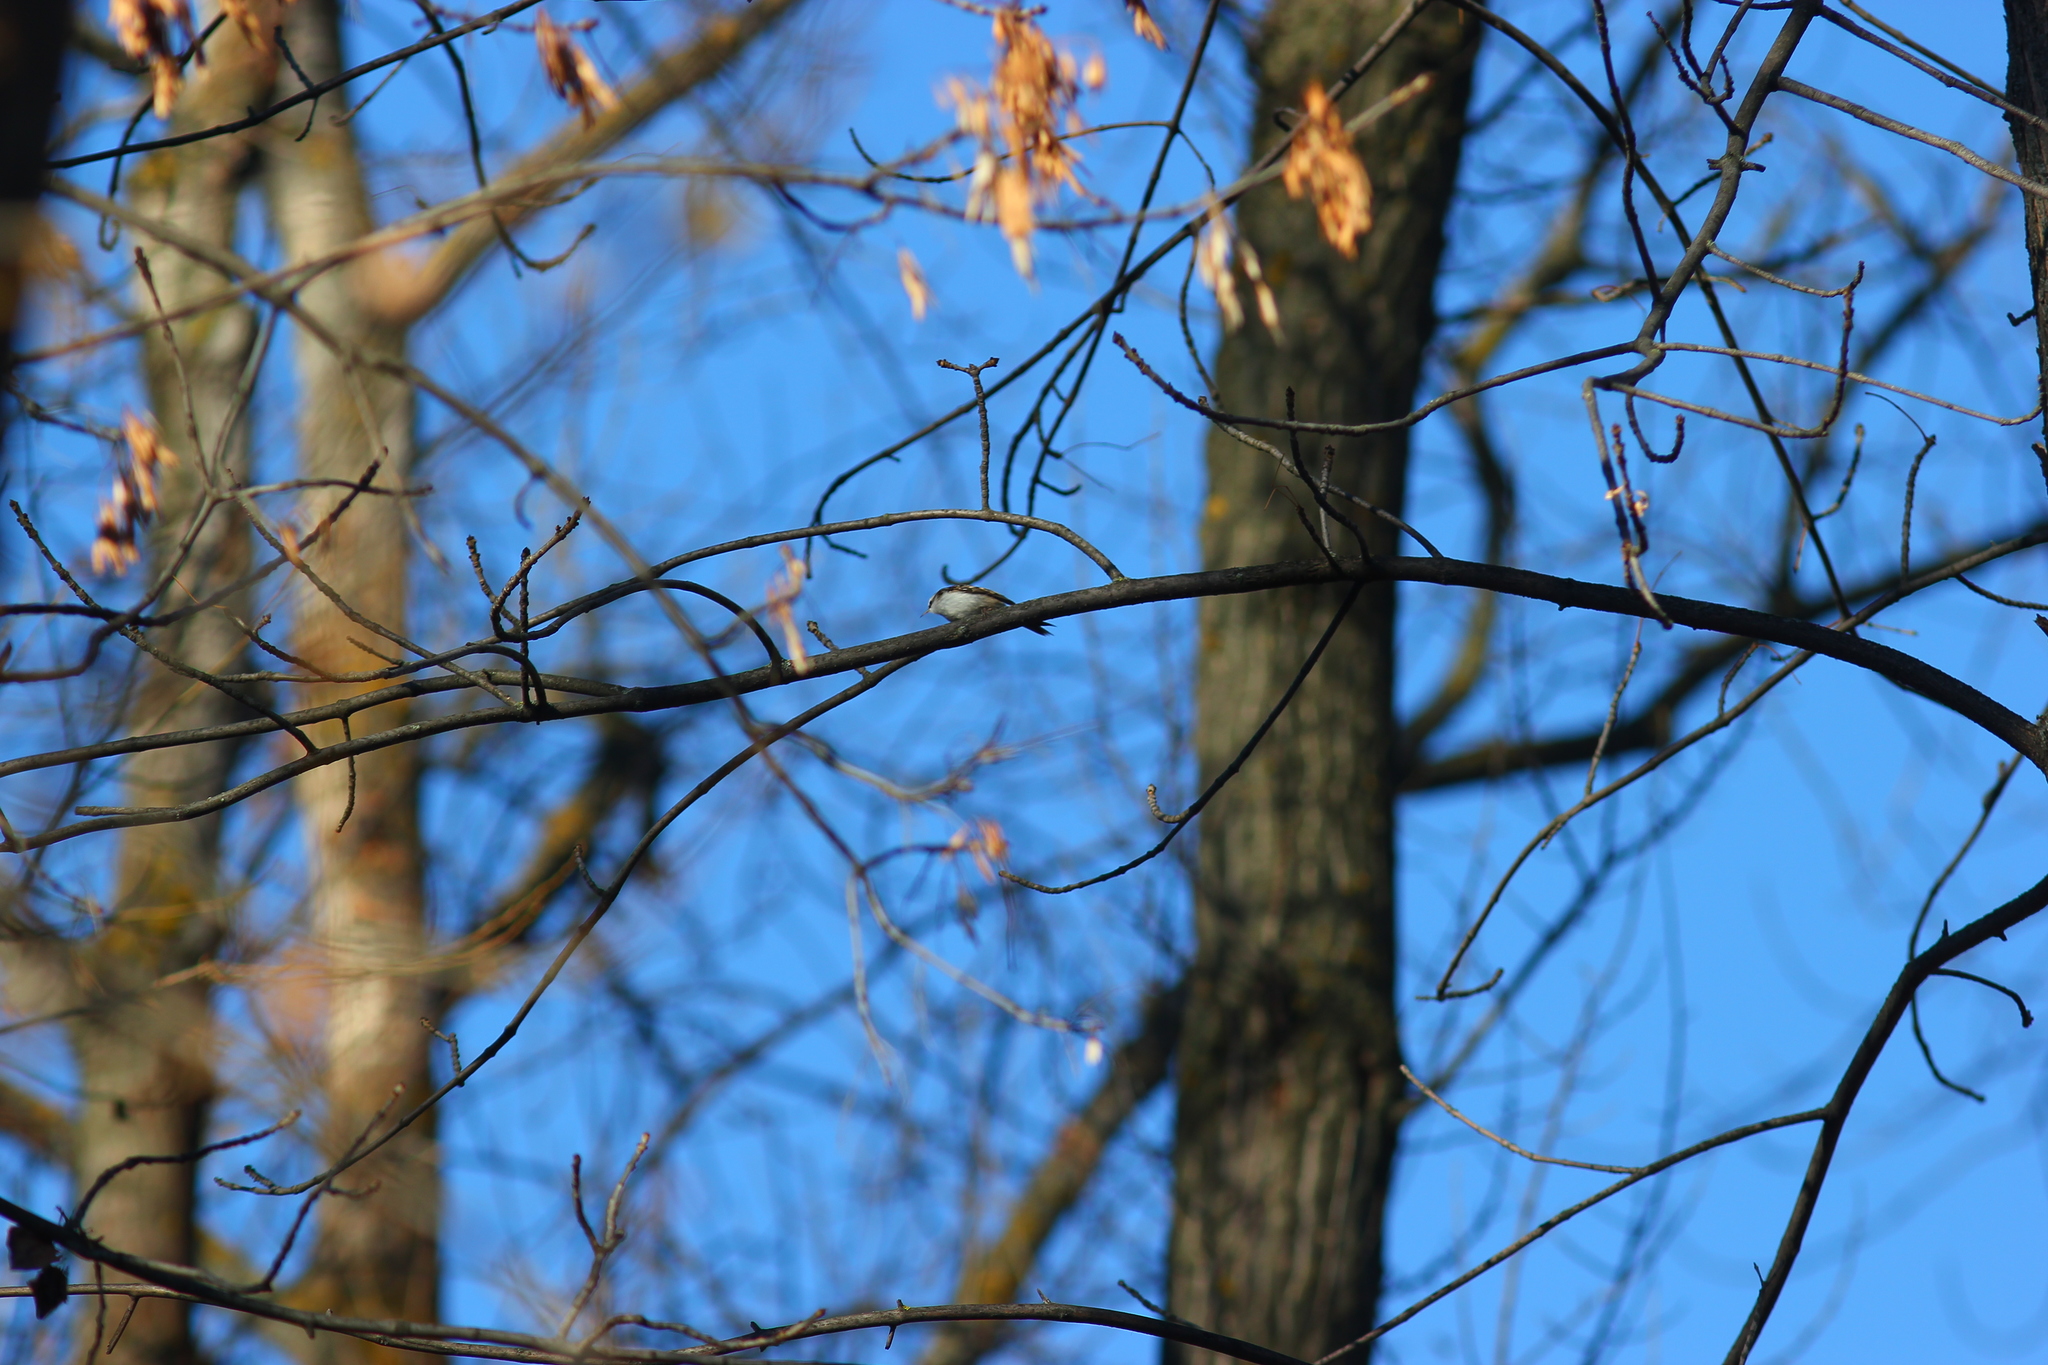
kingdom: Animalia
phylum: Chordata
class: Aves
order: Passeriformes
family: Certhiidae
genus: Certhia
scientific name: Certhia familiaris
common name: Eurasian treecreeper
